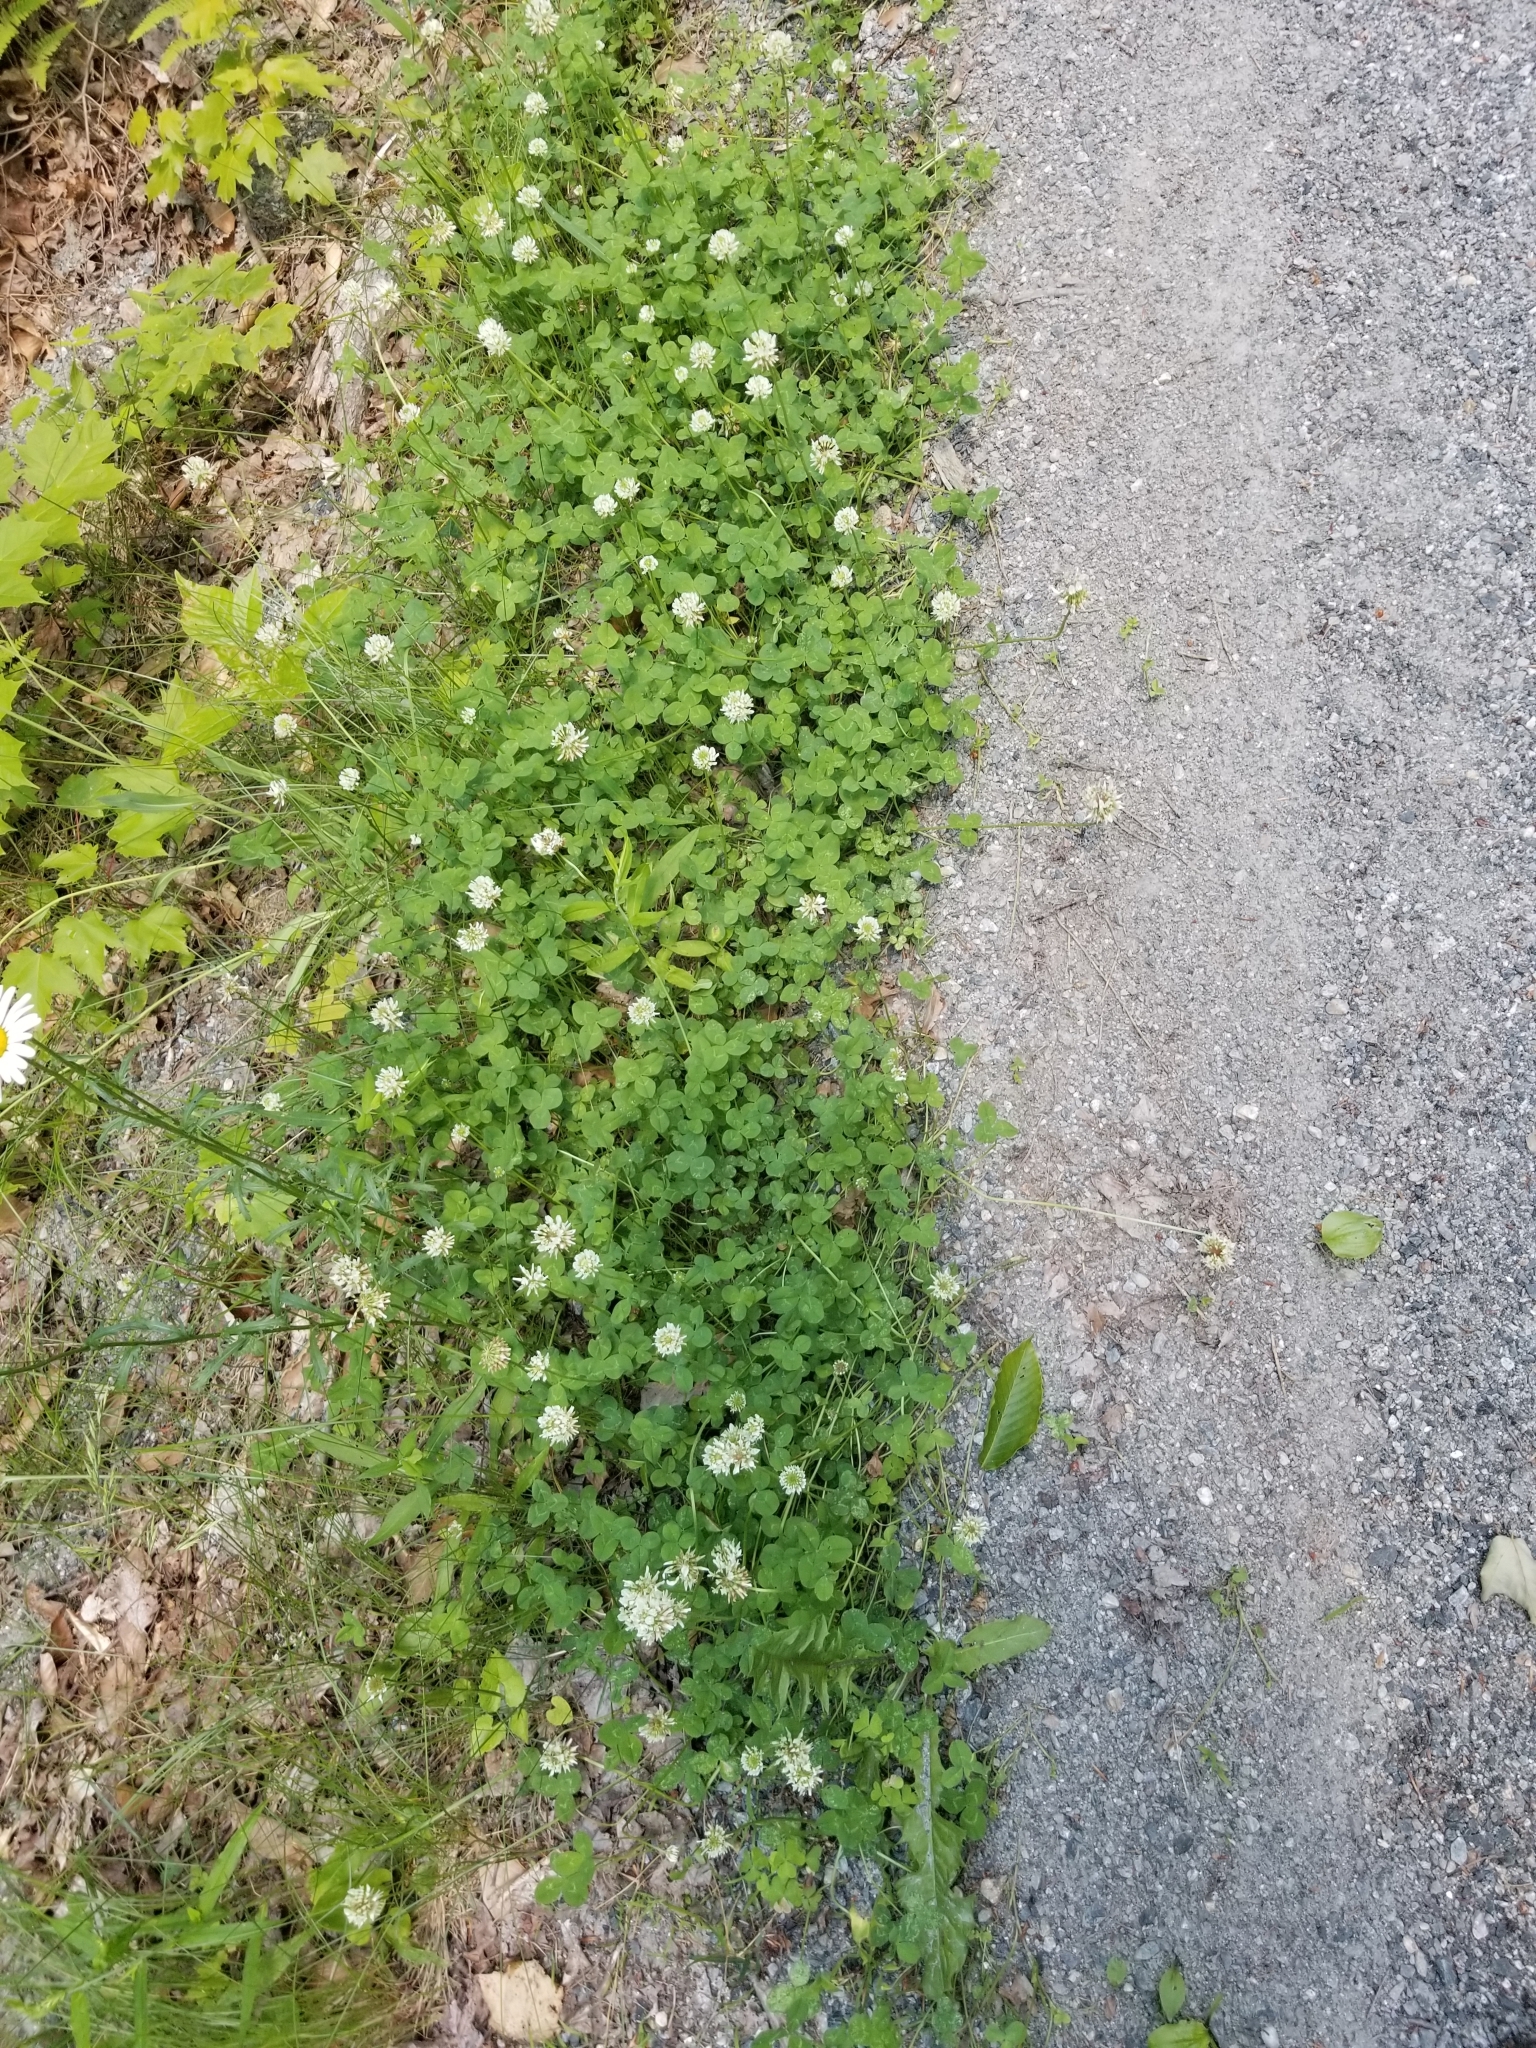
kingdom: Plantae
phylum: Tracheophyta
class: Magnoliopsida
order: Fabales
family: Fabaceae
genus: Trifolium
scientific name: Trifolium repens
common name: White clover
